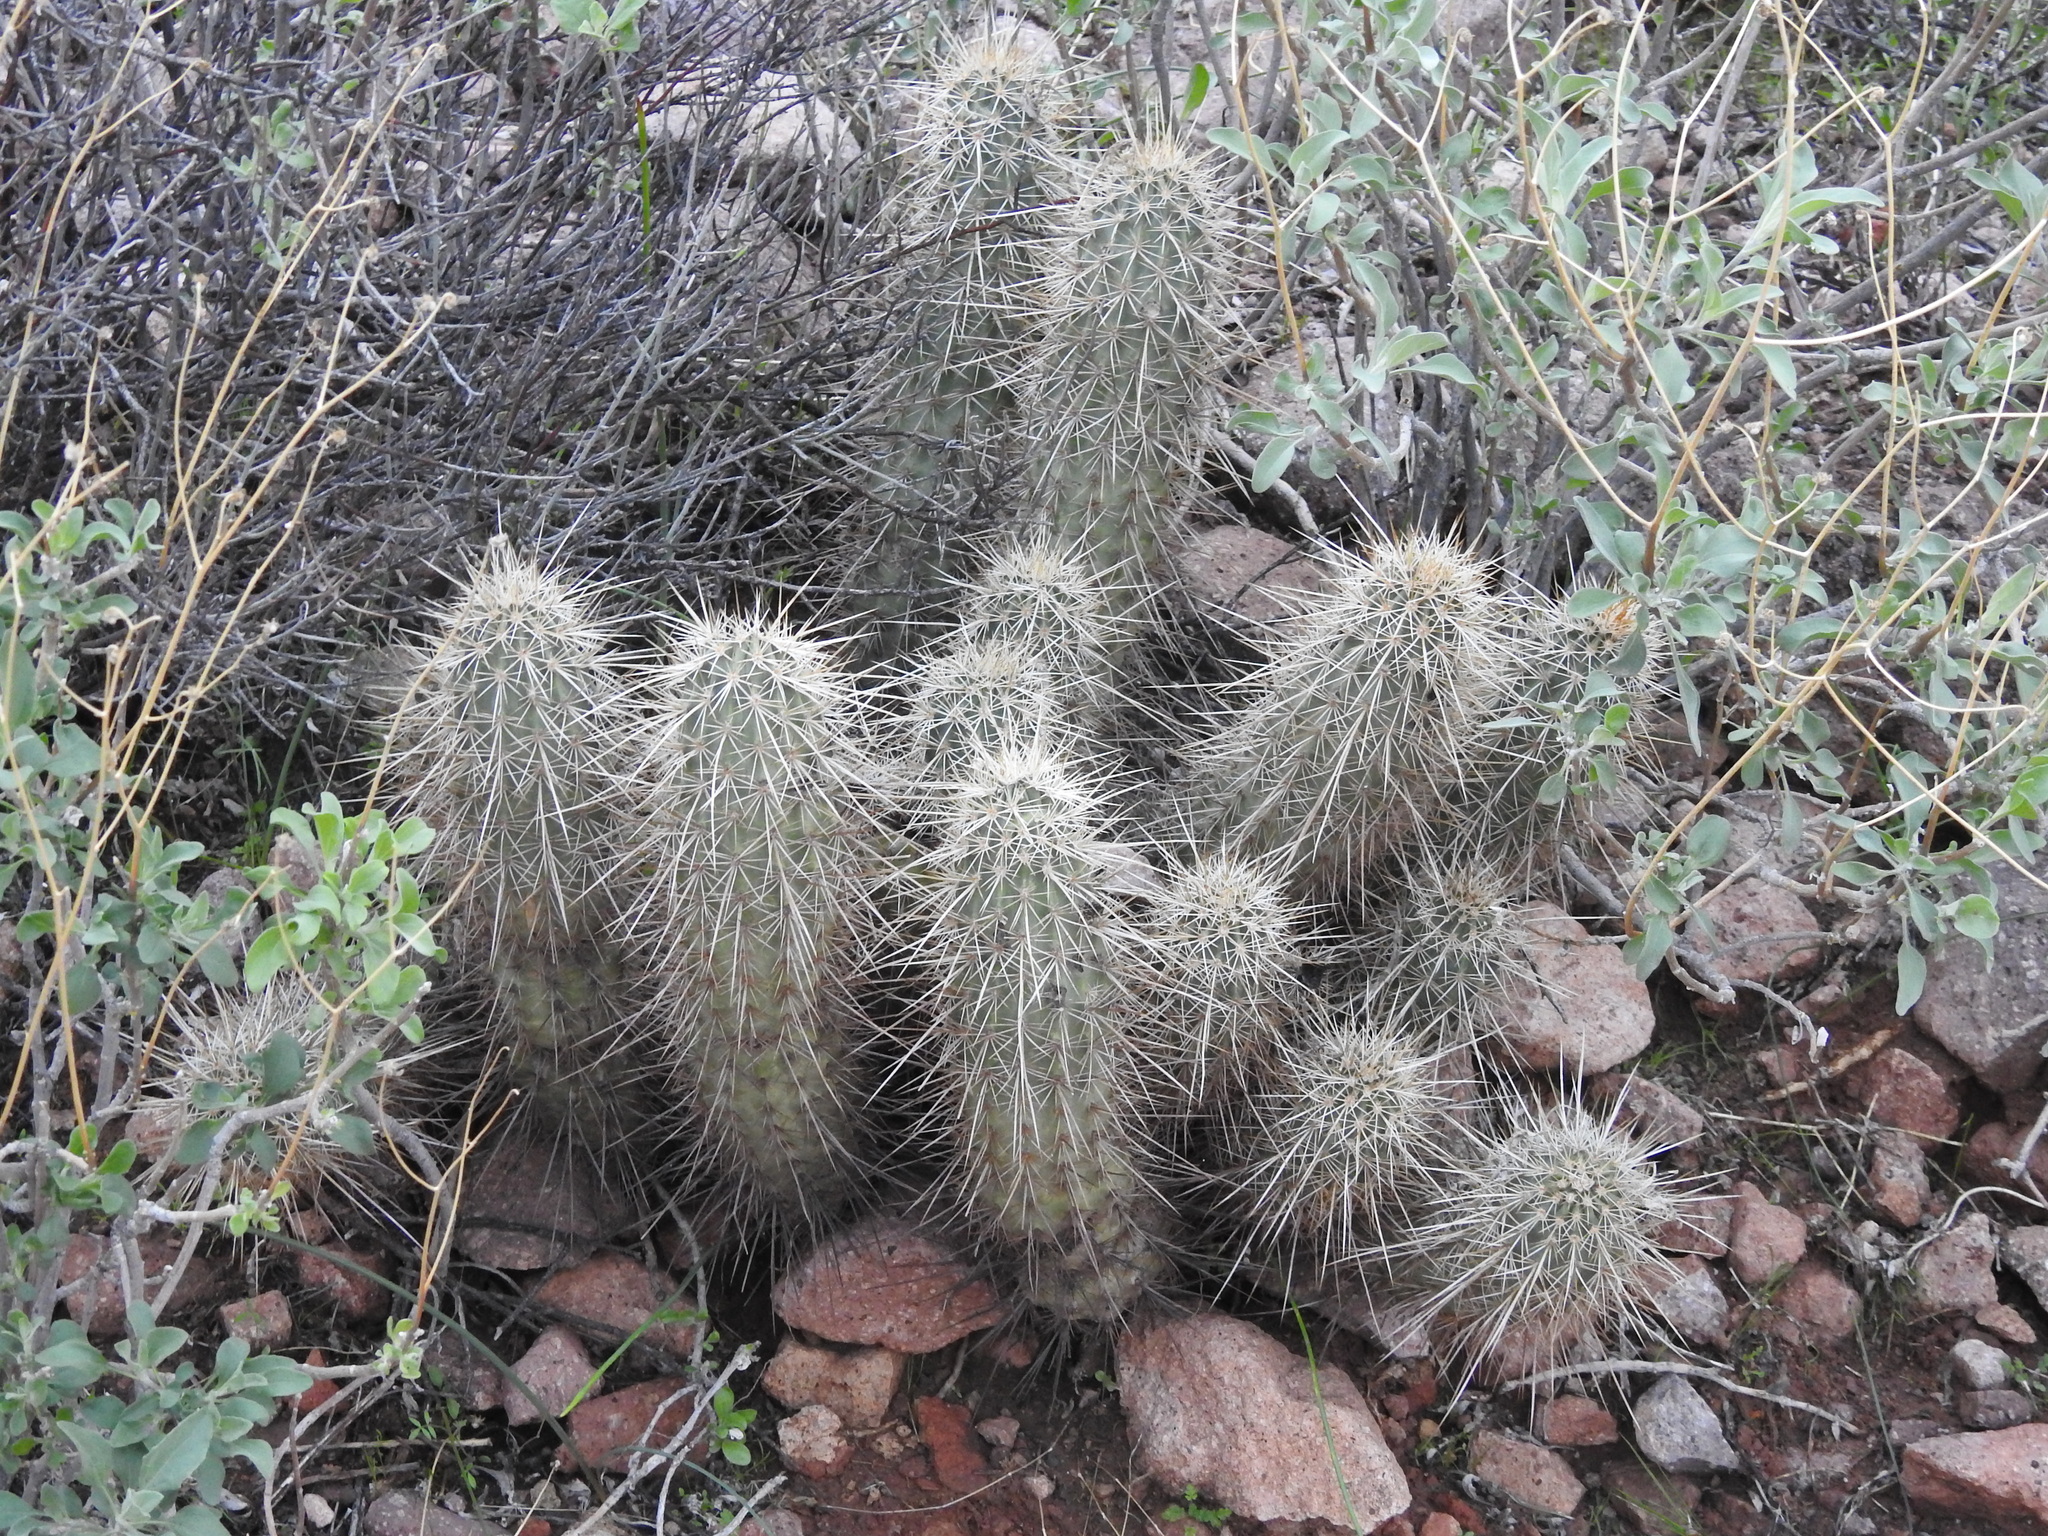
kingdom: Plantae
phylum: Tracheophyta
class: Magnoliopsida
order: Caryophyllales
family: Cactaceae
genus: Echinocereus
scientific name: Echinocereus bonkerae
